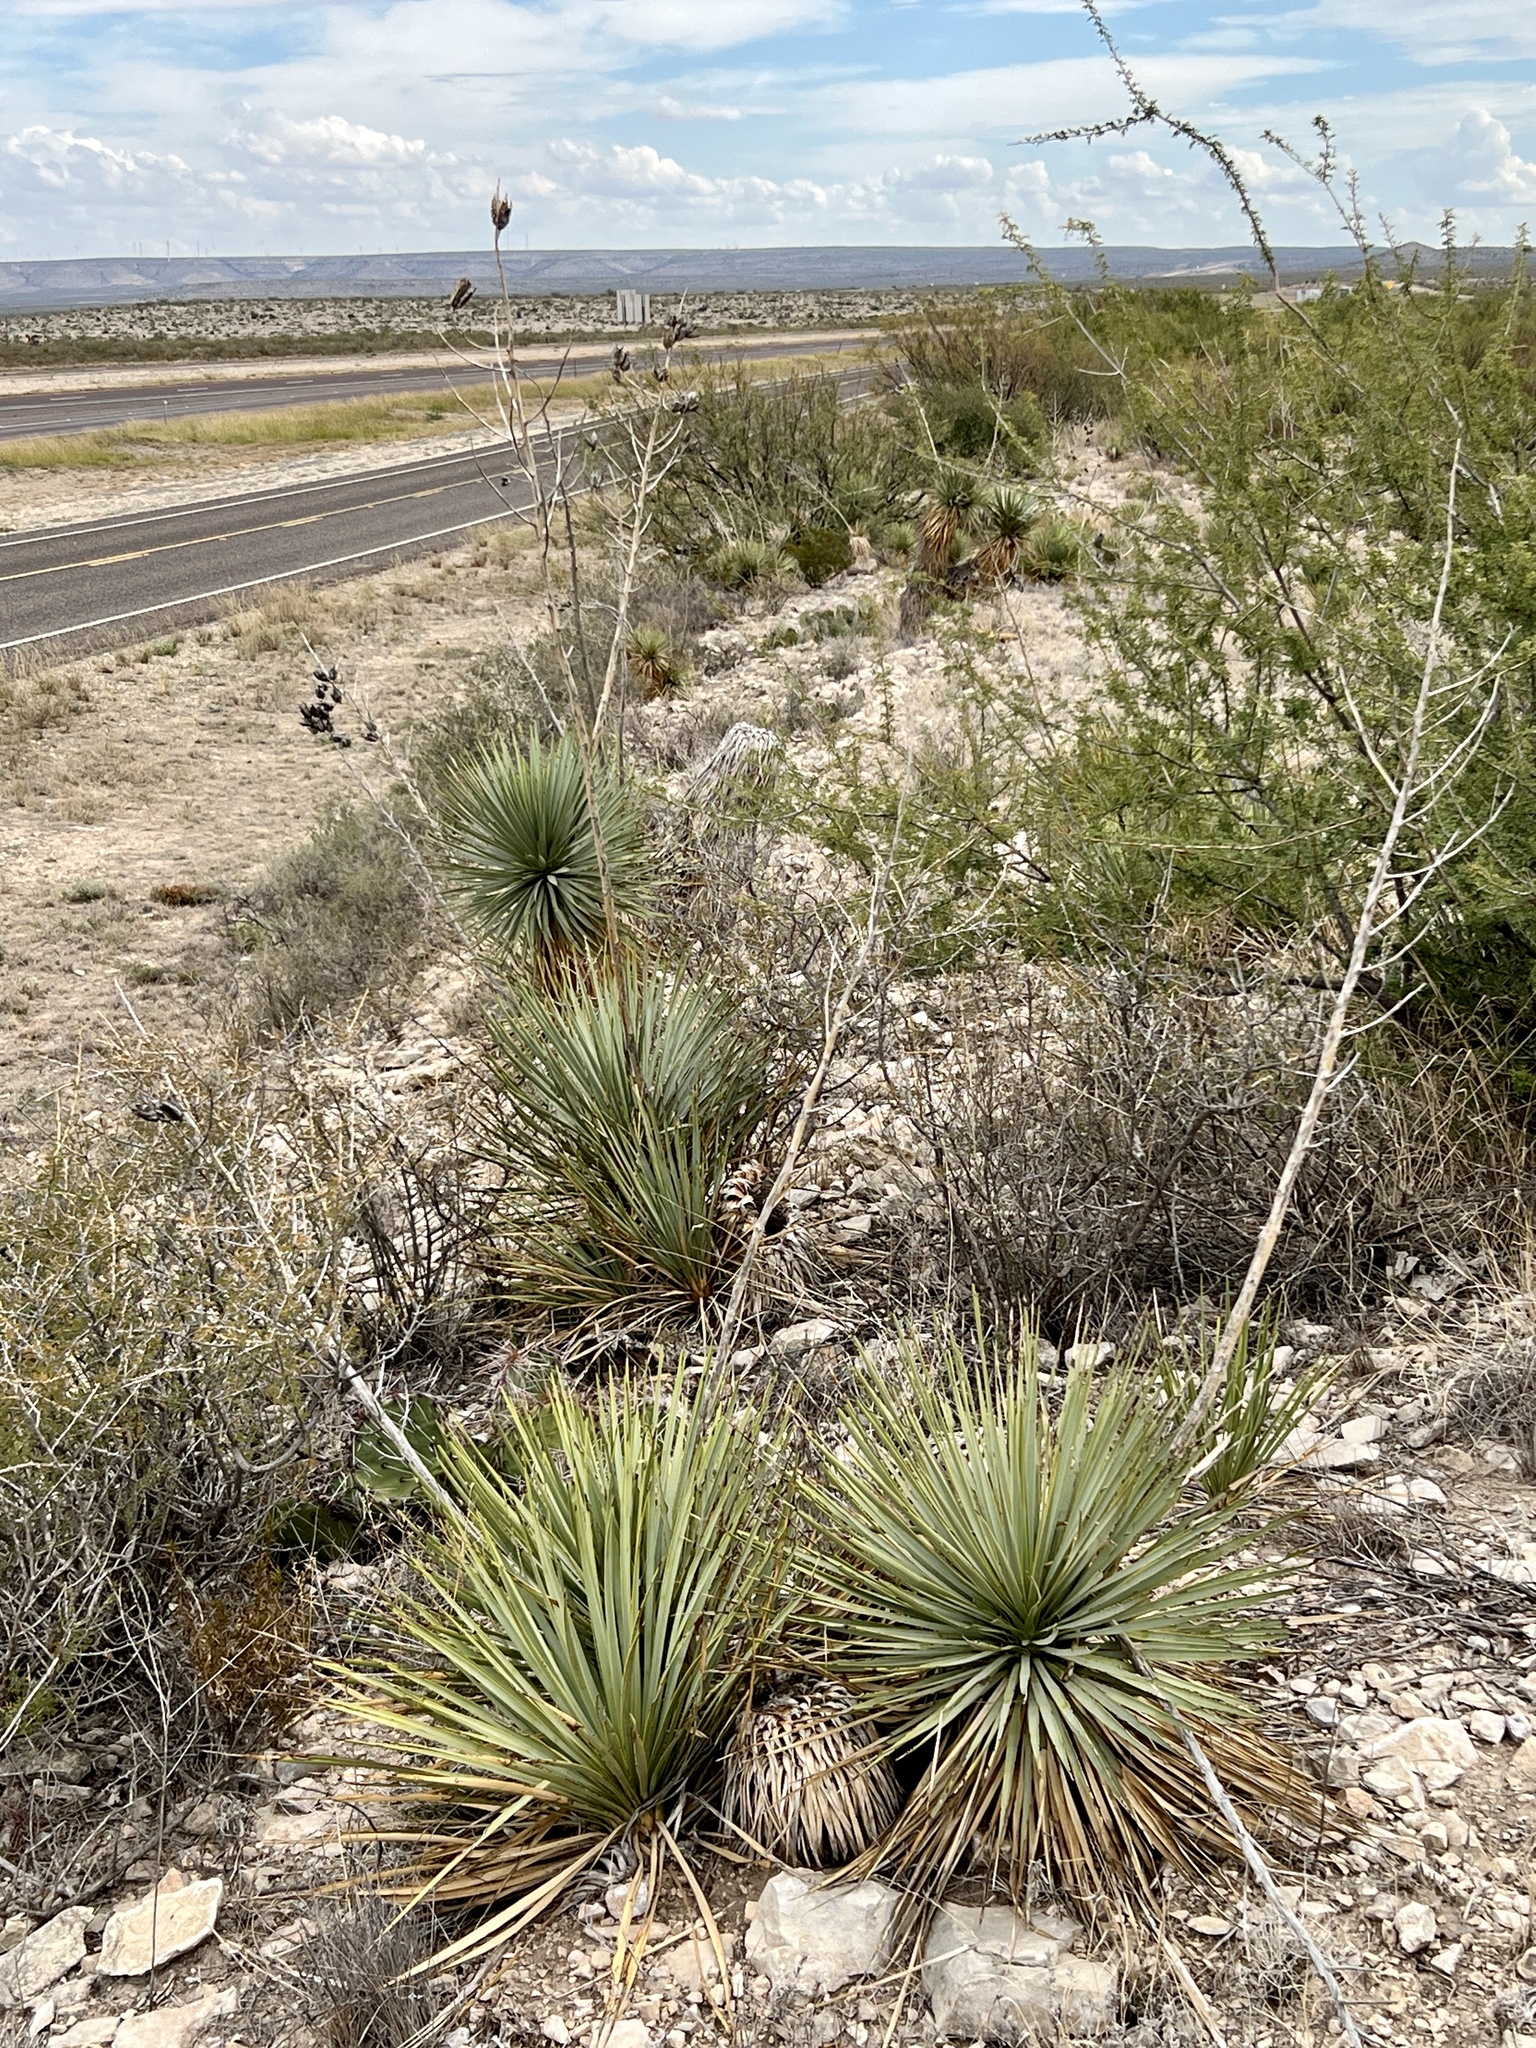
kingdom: Plantae
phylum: Tracheophyta
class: Liliopsida
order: Asparagales
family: Asparagaceae
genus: Yucca
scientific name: Yucca thompsoniana
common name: Trans-pecos yucca
